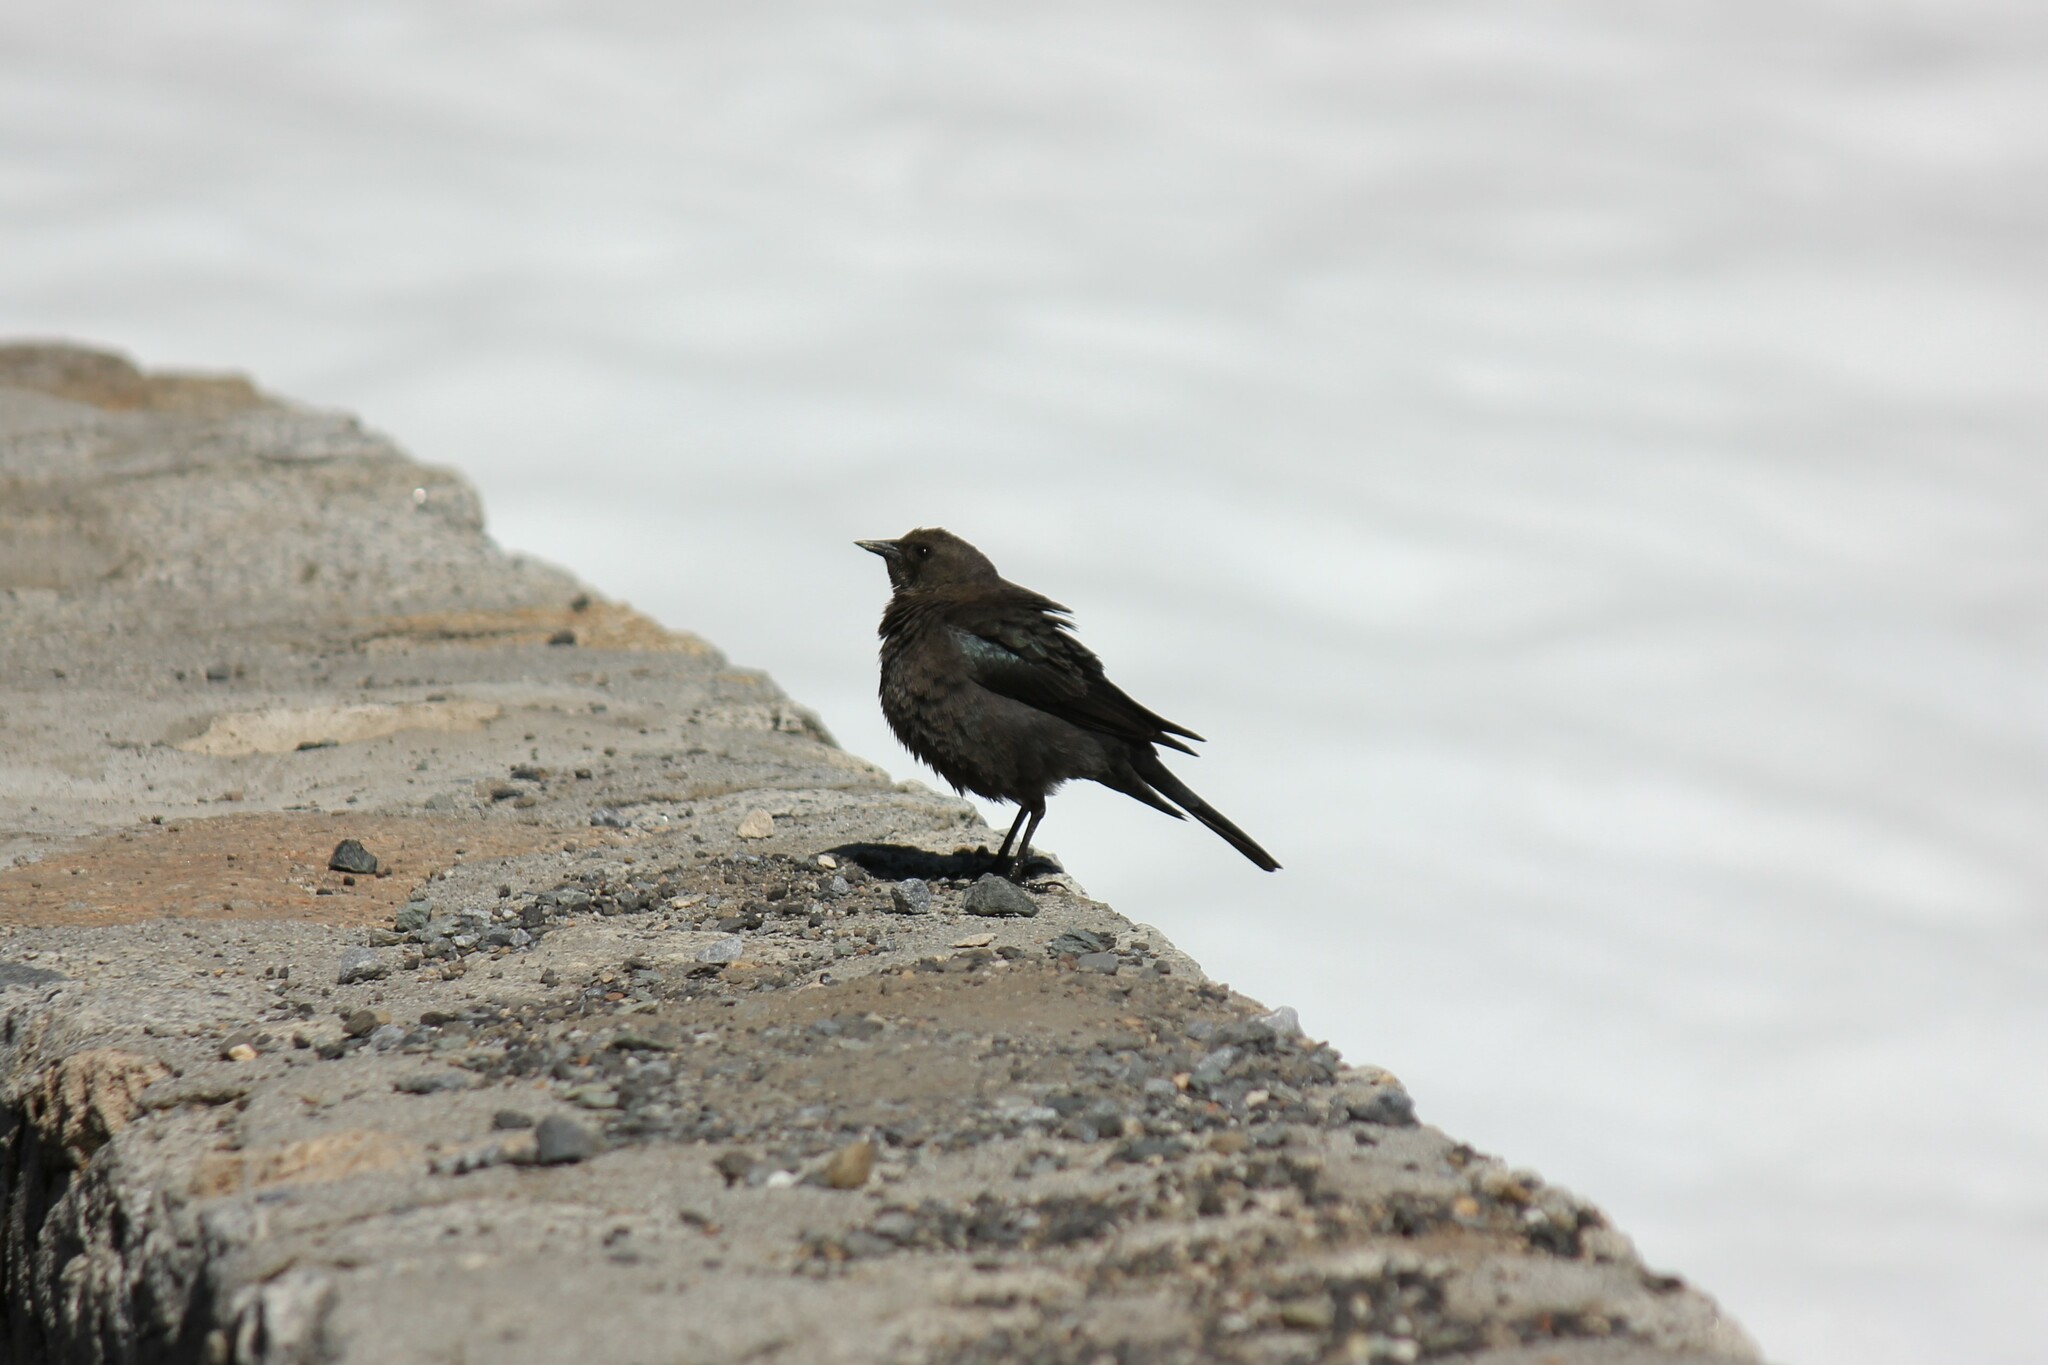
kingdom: Animalia
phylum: Chordata
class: Aves
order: Passeriformes
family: Icteridae
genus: Euphagus
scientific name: Euphagus cyanocephalus
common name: Brewer's blackbird
